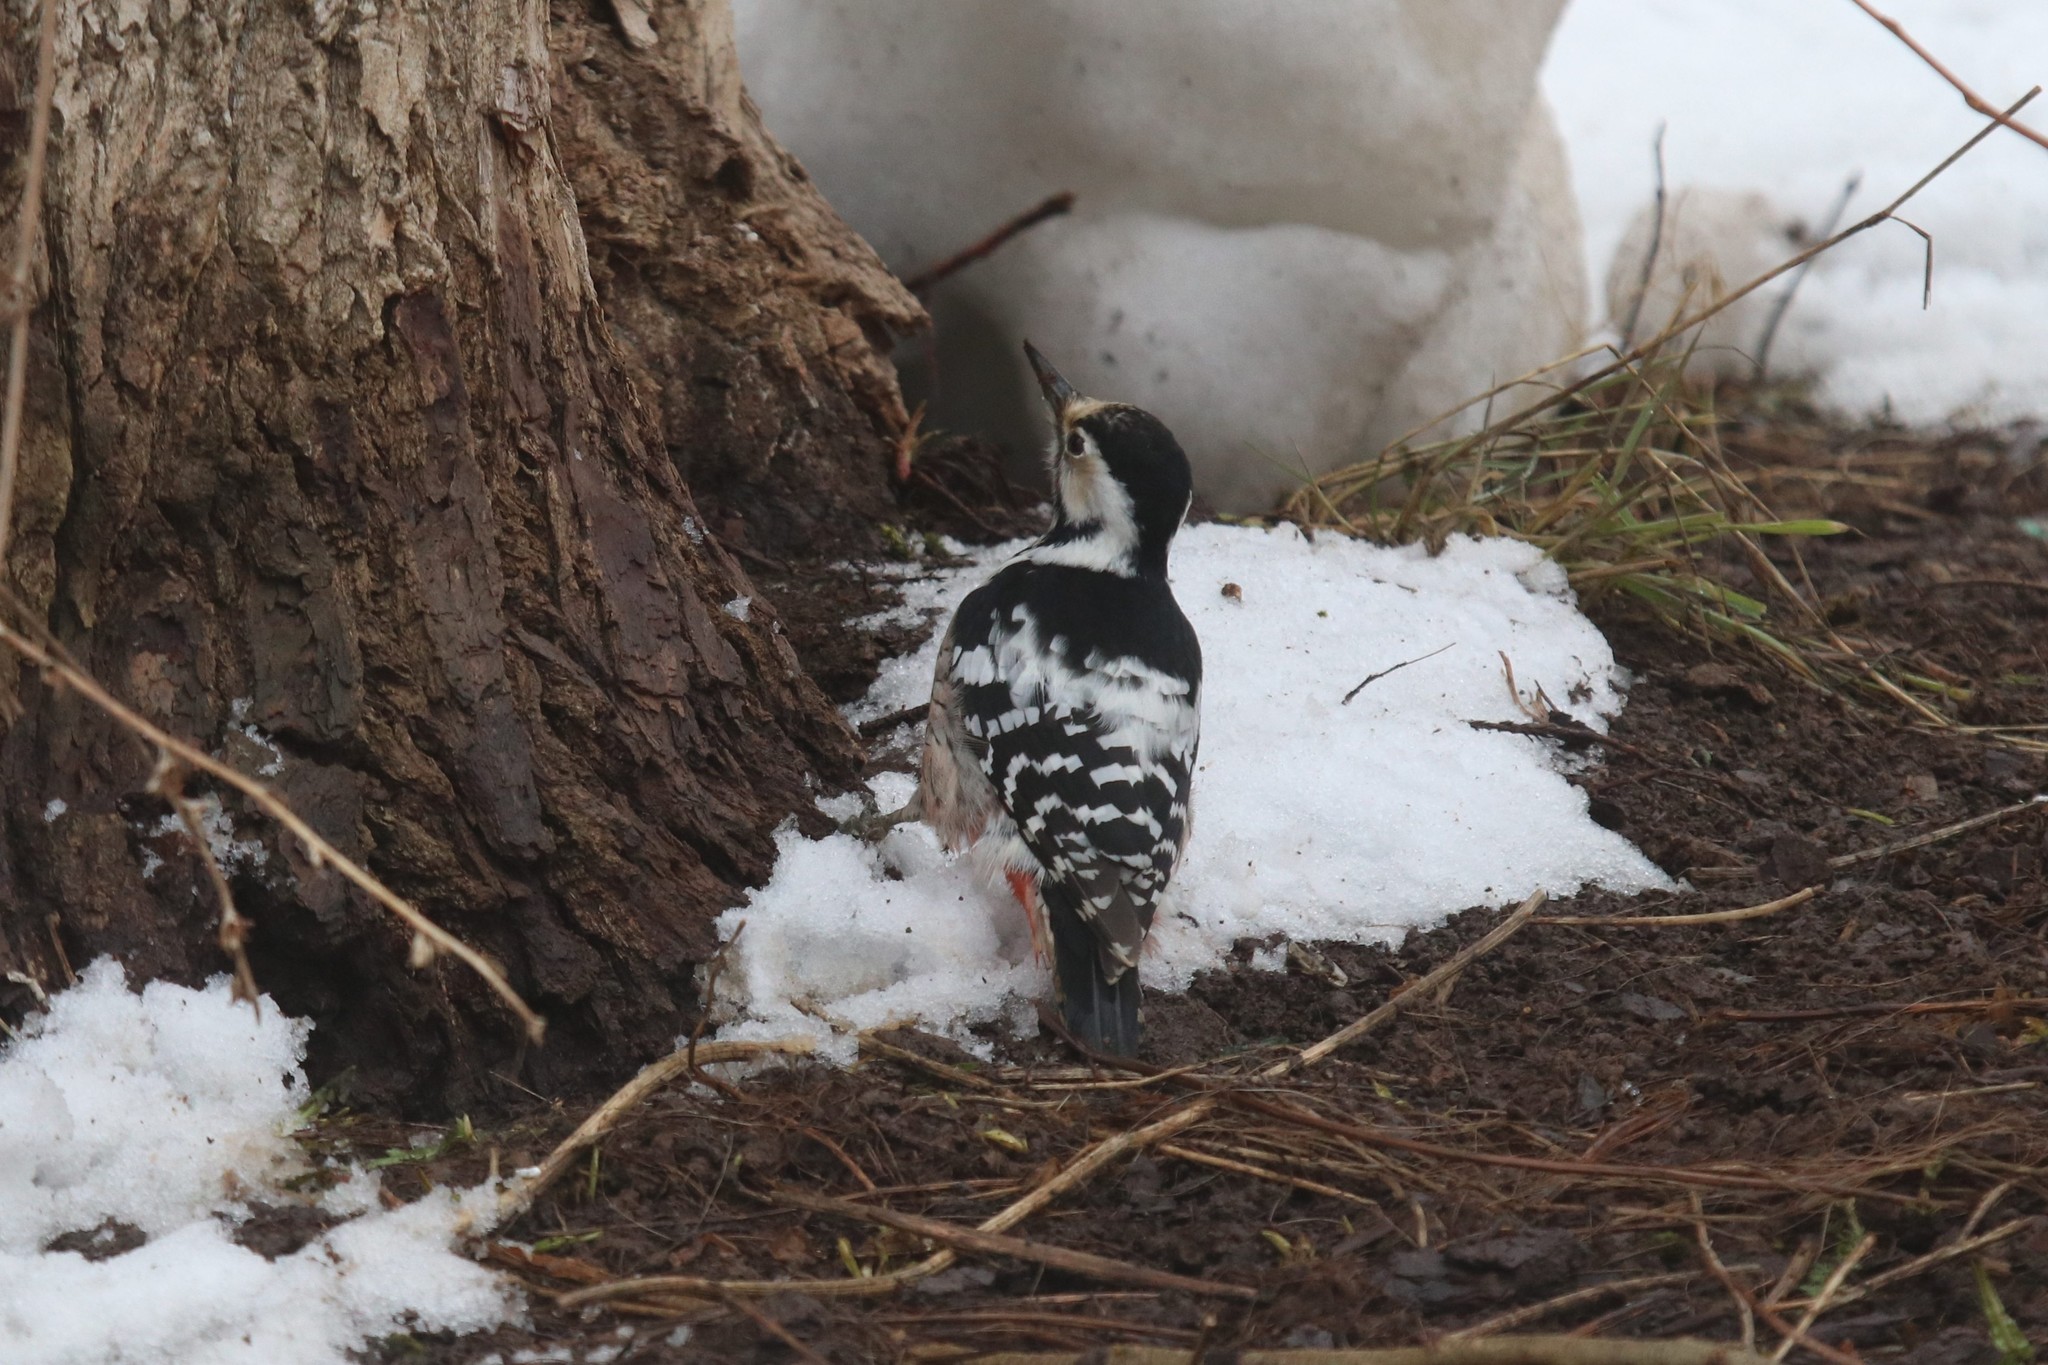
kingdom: Animalia
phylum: Chordata
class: Aves
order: Piciformes
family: Picidae
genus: Dendrocopos
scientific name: Dendrocopos leucotos
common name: White-backed woodpecker
